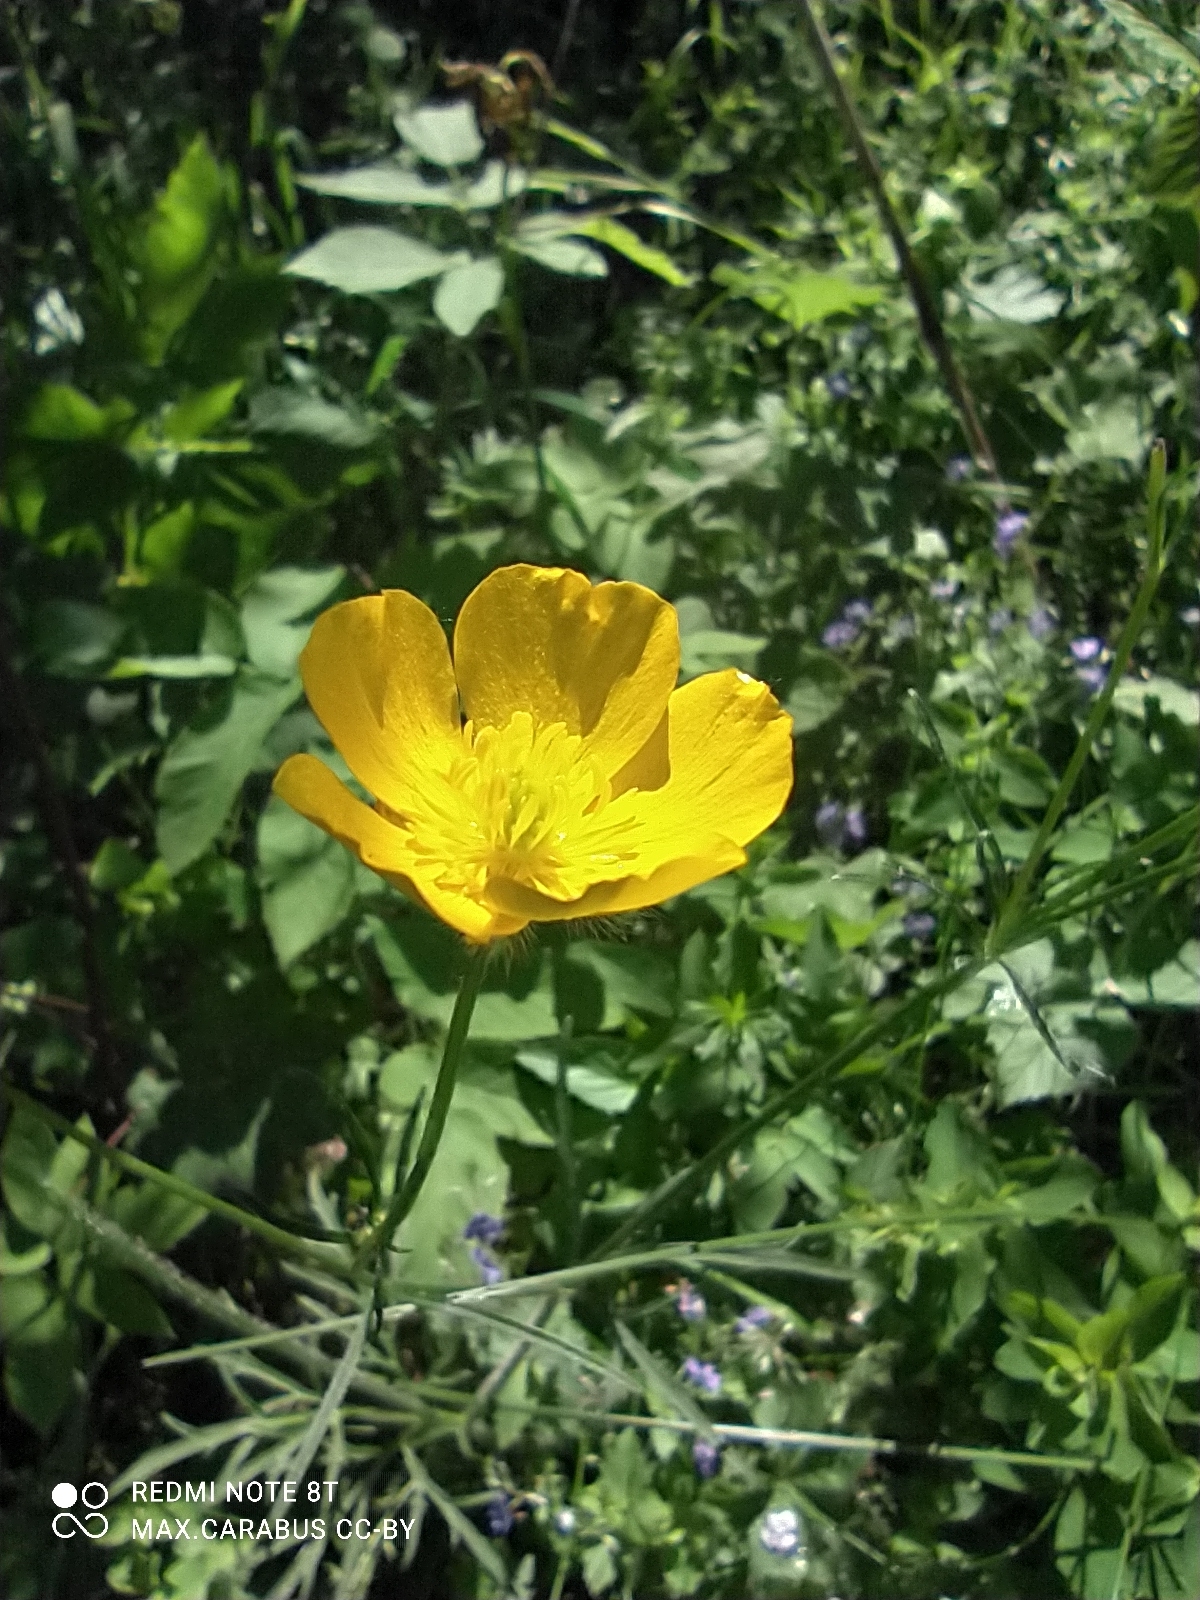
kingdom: Plantae
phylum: Tracheophyta
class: Magnoliopsida
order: Ranunculales
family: Ranunculaceae
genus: Ranunculus
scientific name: Ranunculus polyanthemos
